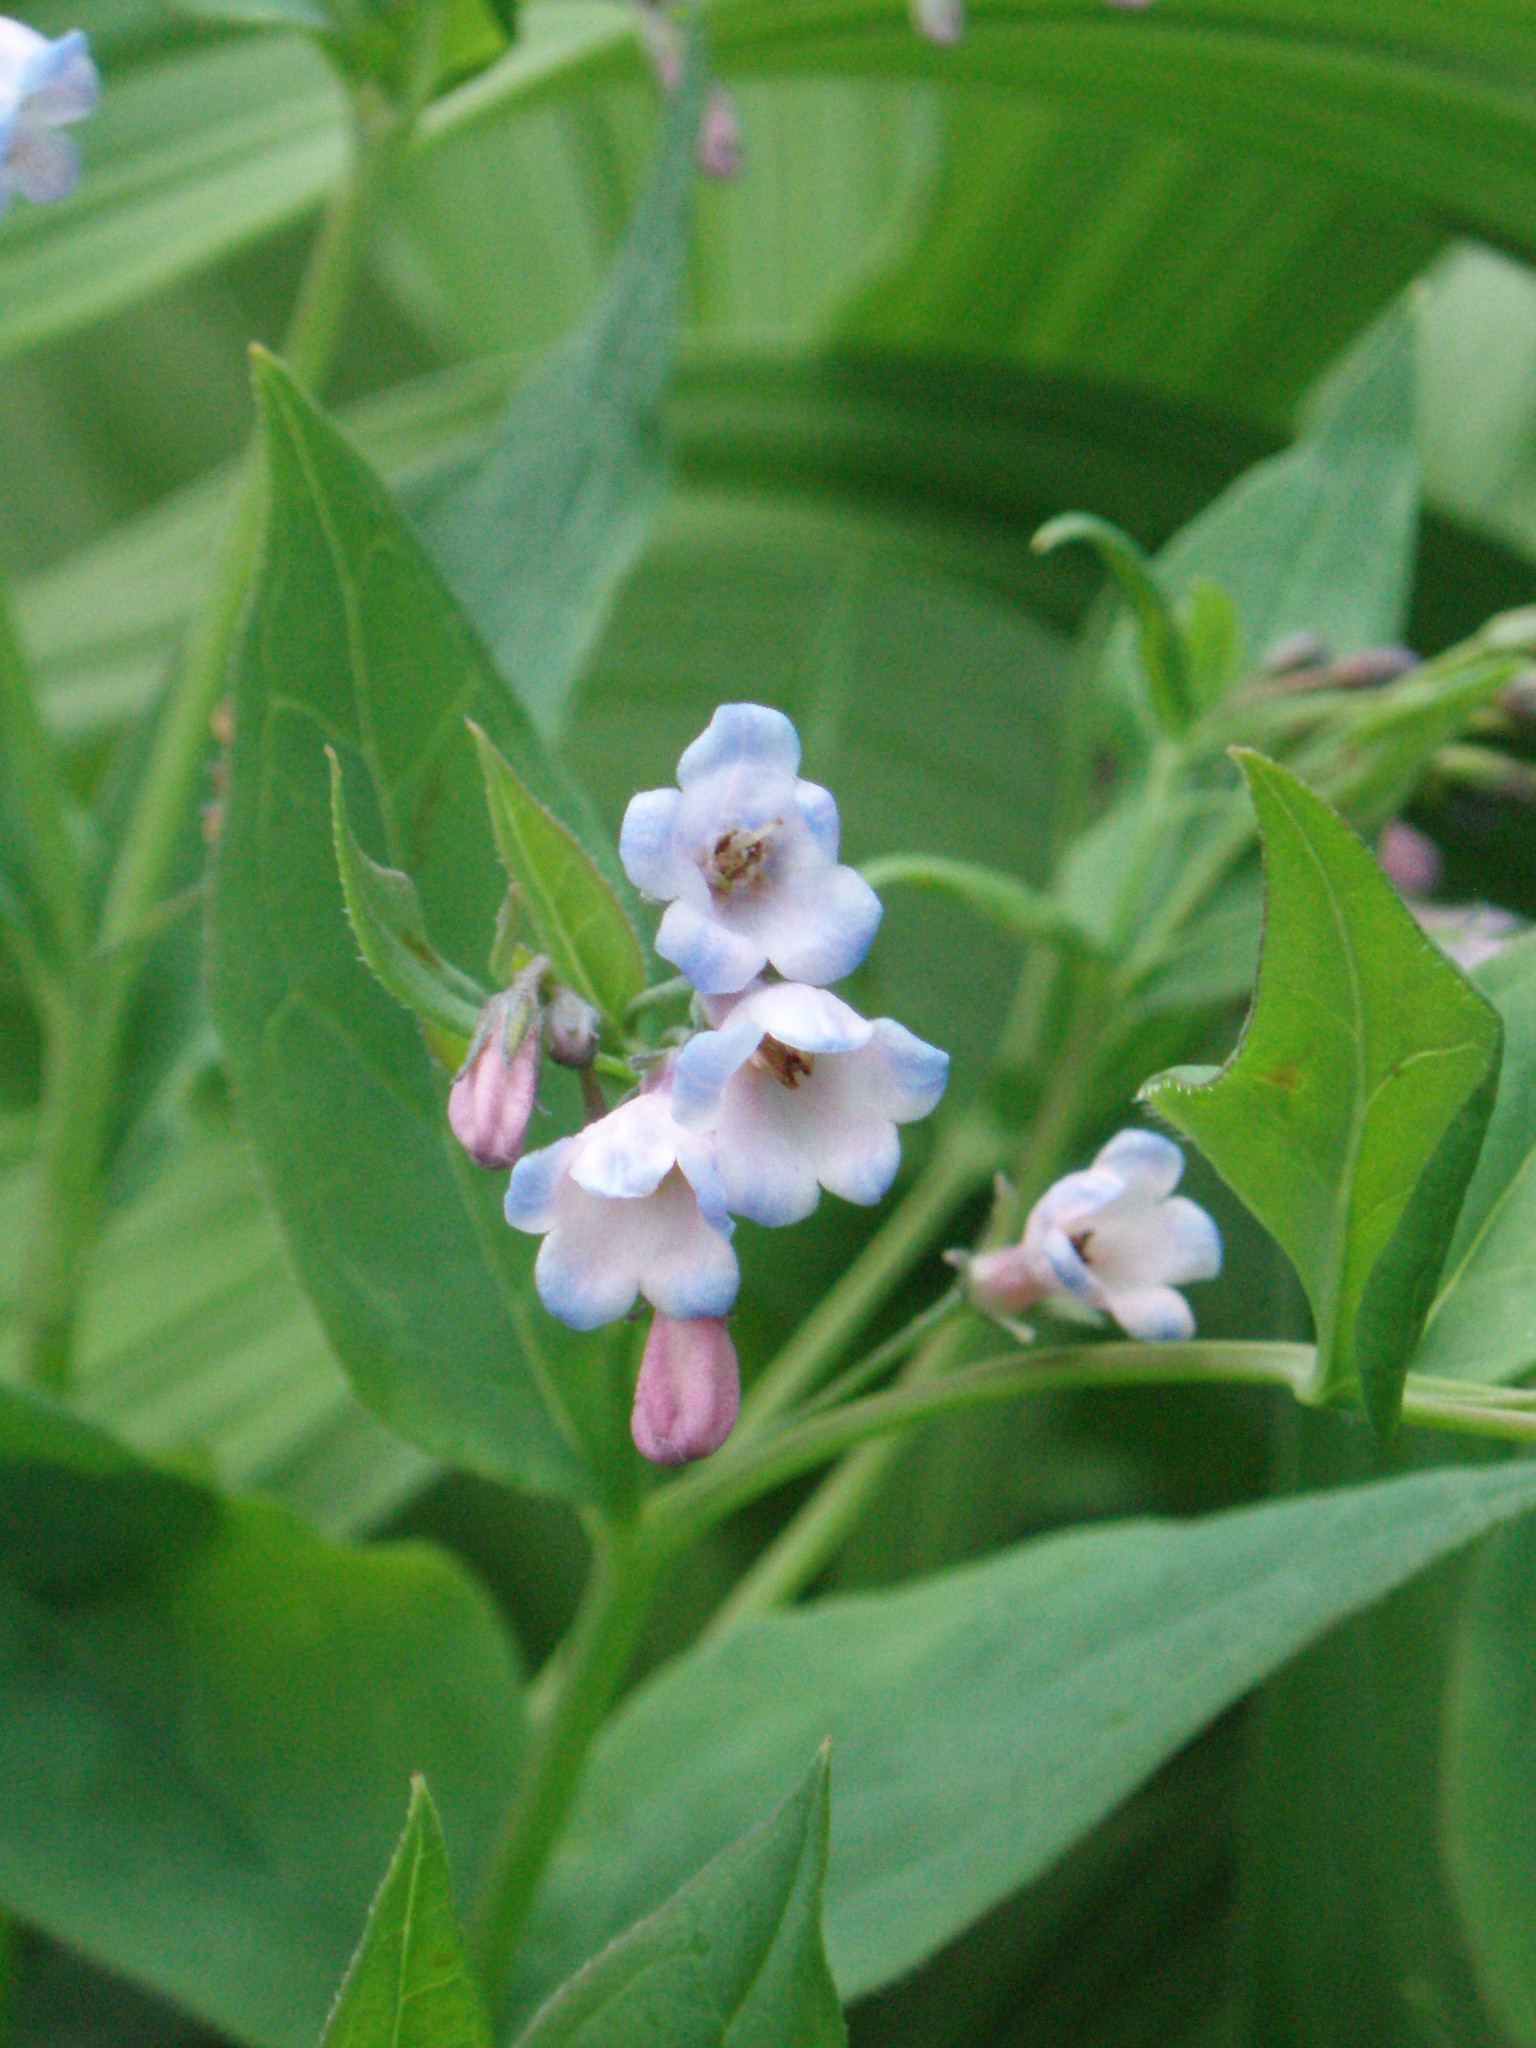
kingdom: Plantae
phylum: Tracheophyta
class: Magnoliopsida
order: Boraginales
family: Boraginaceae
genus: Mertensia
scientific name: Mertensia paniculata
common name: Panicled bluebells
